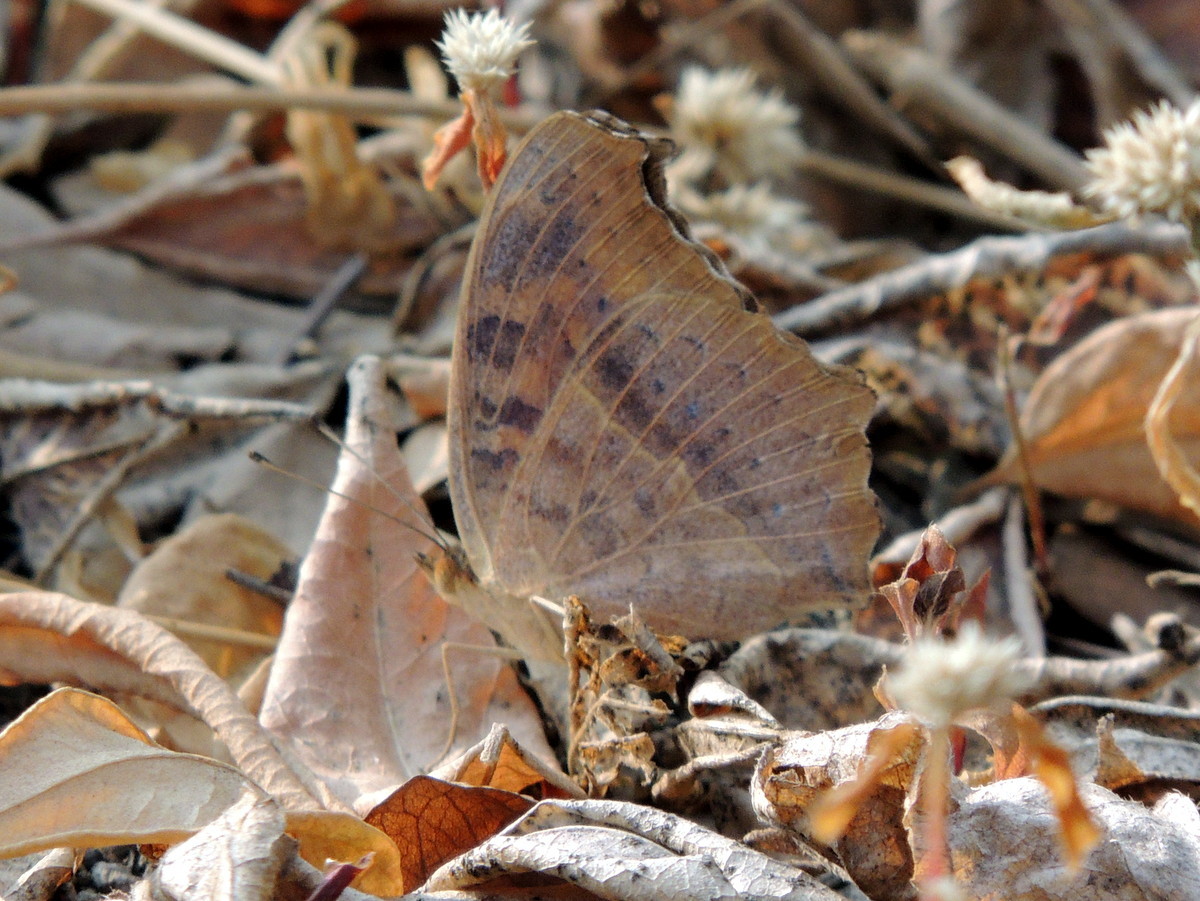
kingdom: Animalia
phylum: Arthropoda
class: Insecta
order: Lepidoptera
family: Nymphalidae
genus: Junonia
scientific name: Junonia lemonias
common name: Lemon pansy
